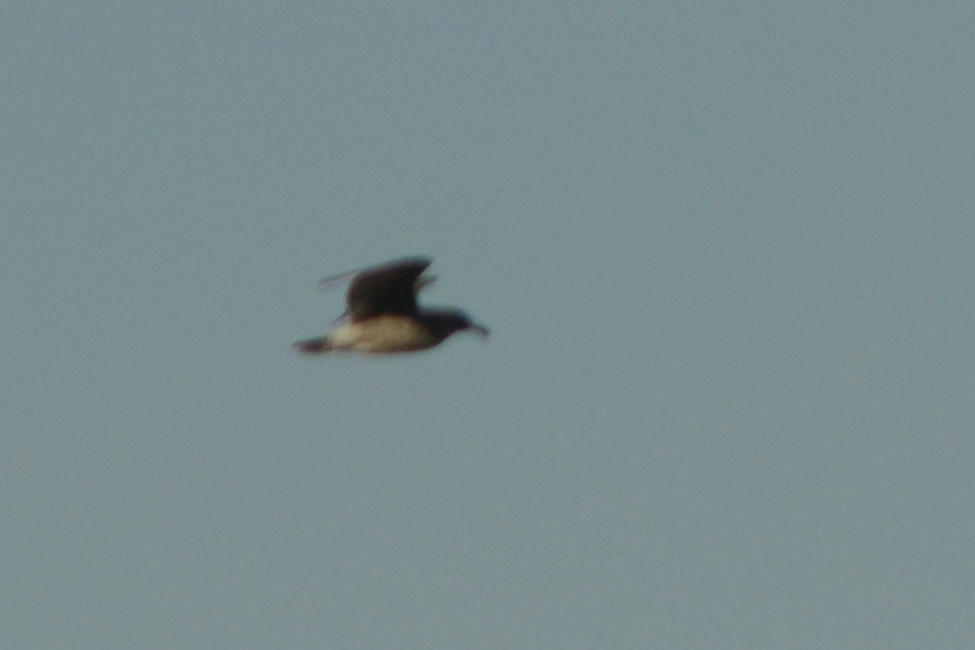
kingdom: Animalia
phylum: Chordata
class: Aves
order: Charadriiformes
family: Laridae
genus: Larus
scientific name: Larus occidentalis
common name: Western gull
